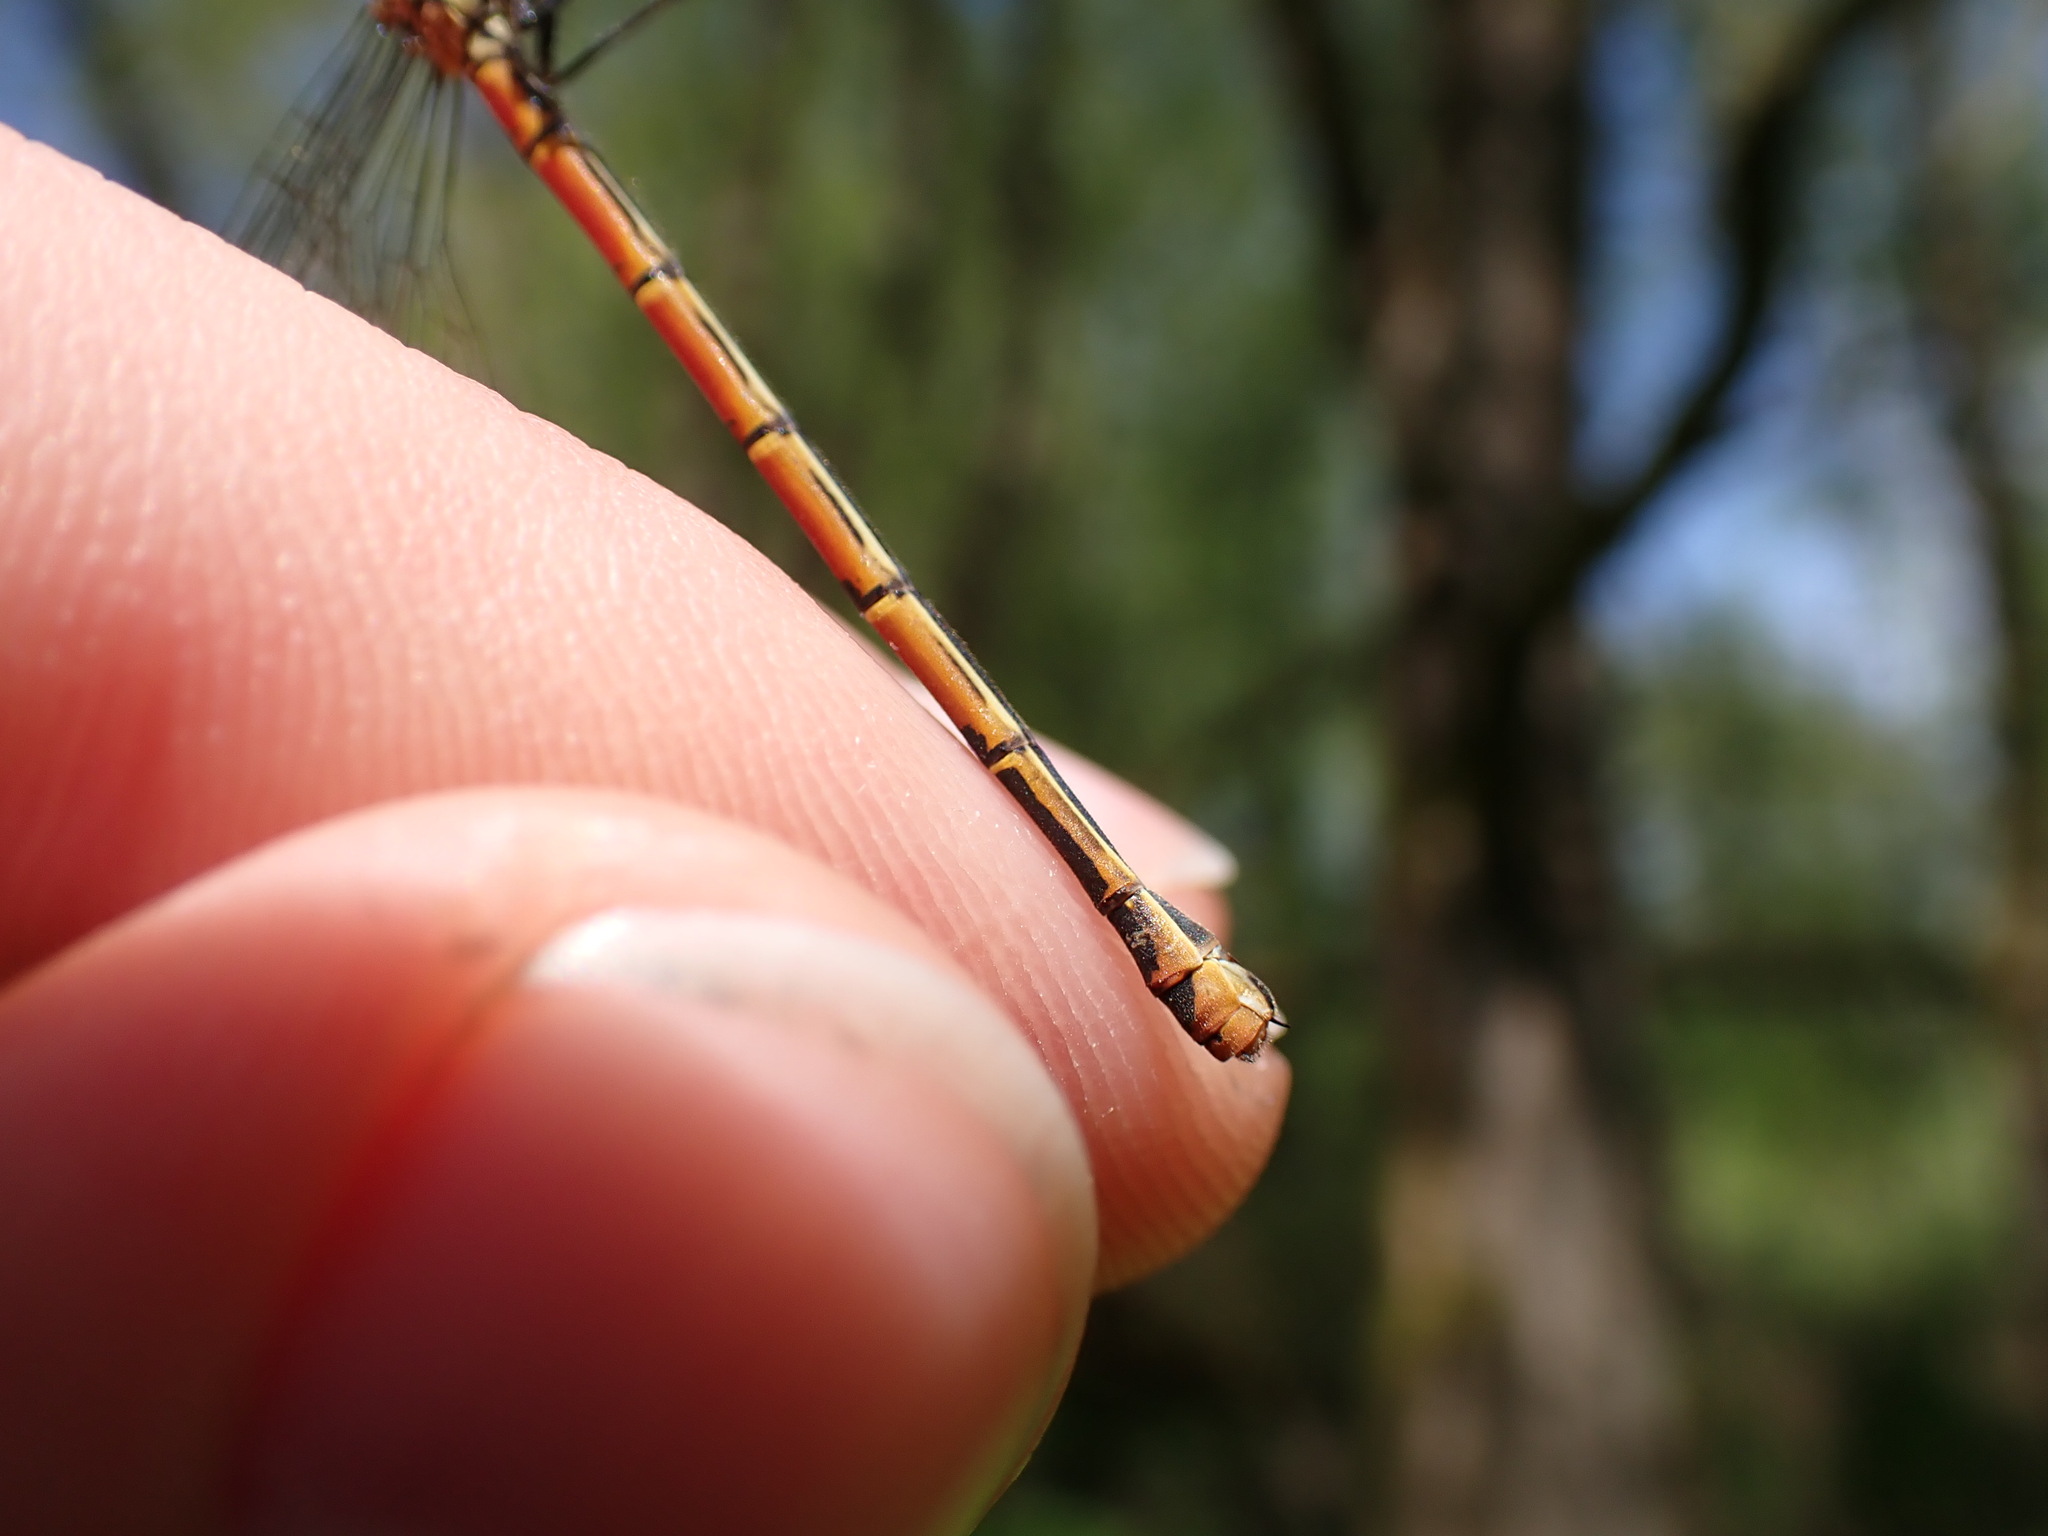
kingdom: Animalia
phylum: Arthropoda
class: Insecta
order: Odonata
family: Coenagrionidae
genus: Pyrrhosoma
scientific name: Pyrrhosoma nymphula
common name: Large red damsel
